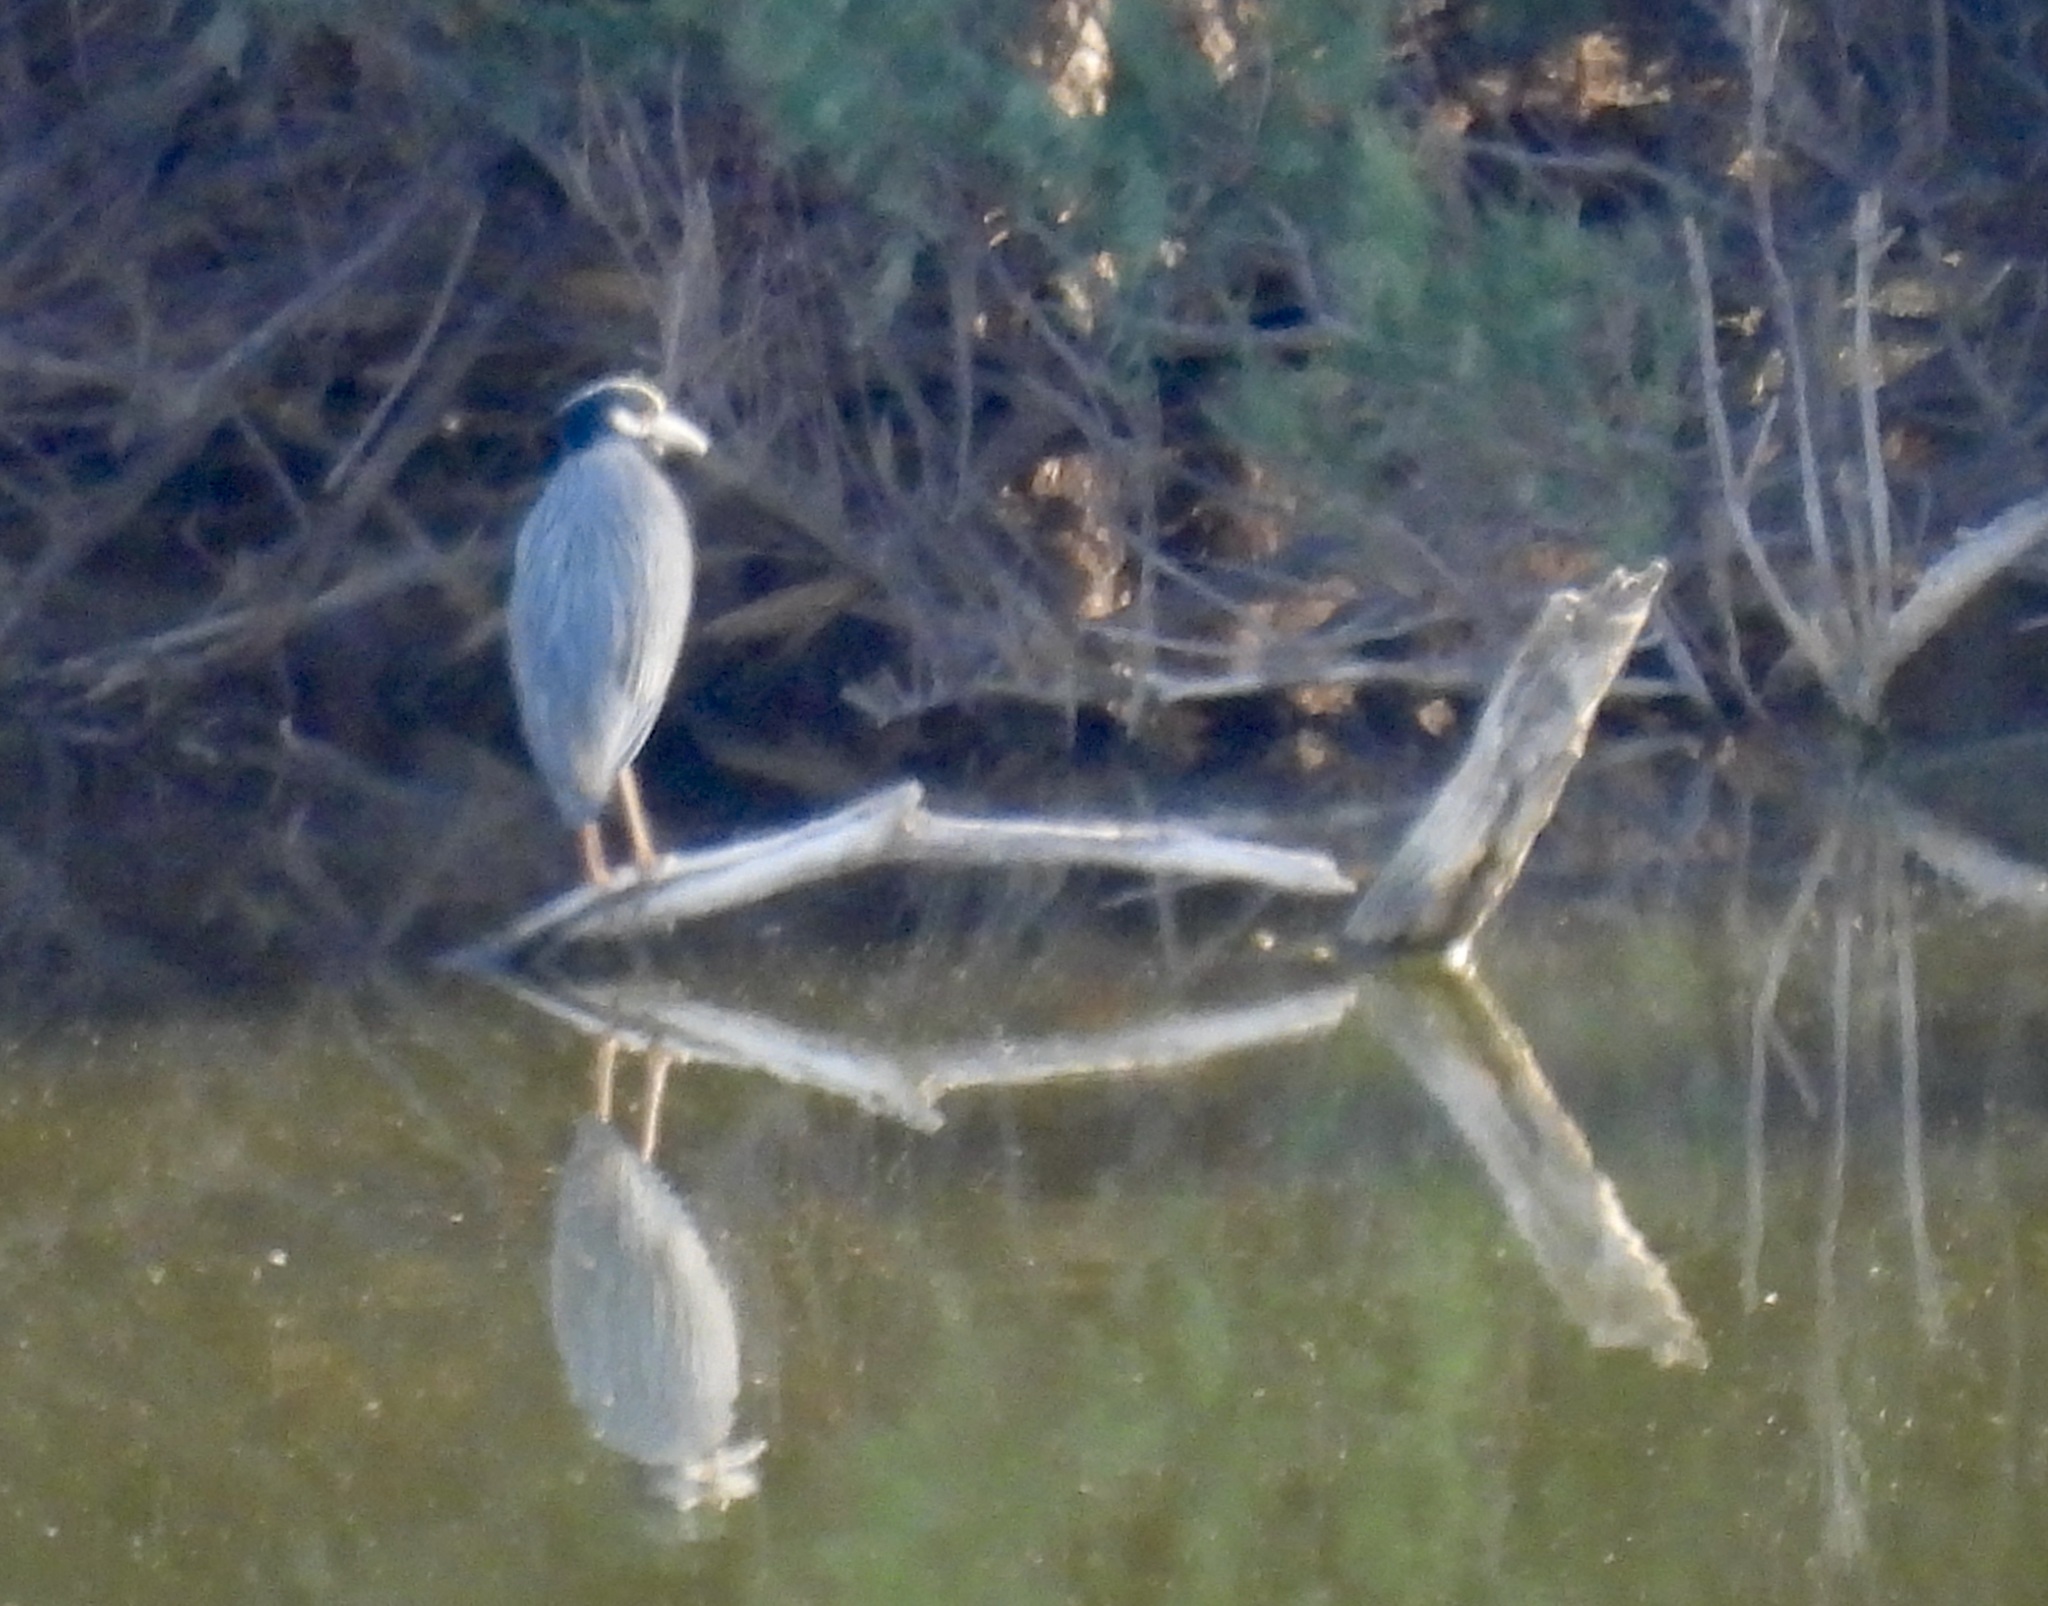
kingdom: Animalia
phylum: Chordata
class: Aves
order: Pelecaniformes
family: Ardeidae
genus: Nyctanassa
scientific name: Nyctanassa violacea
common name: Yellow-crowned night heron
